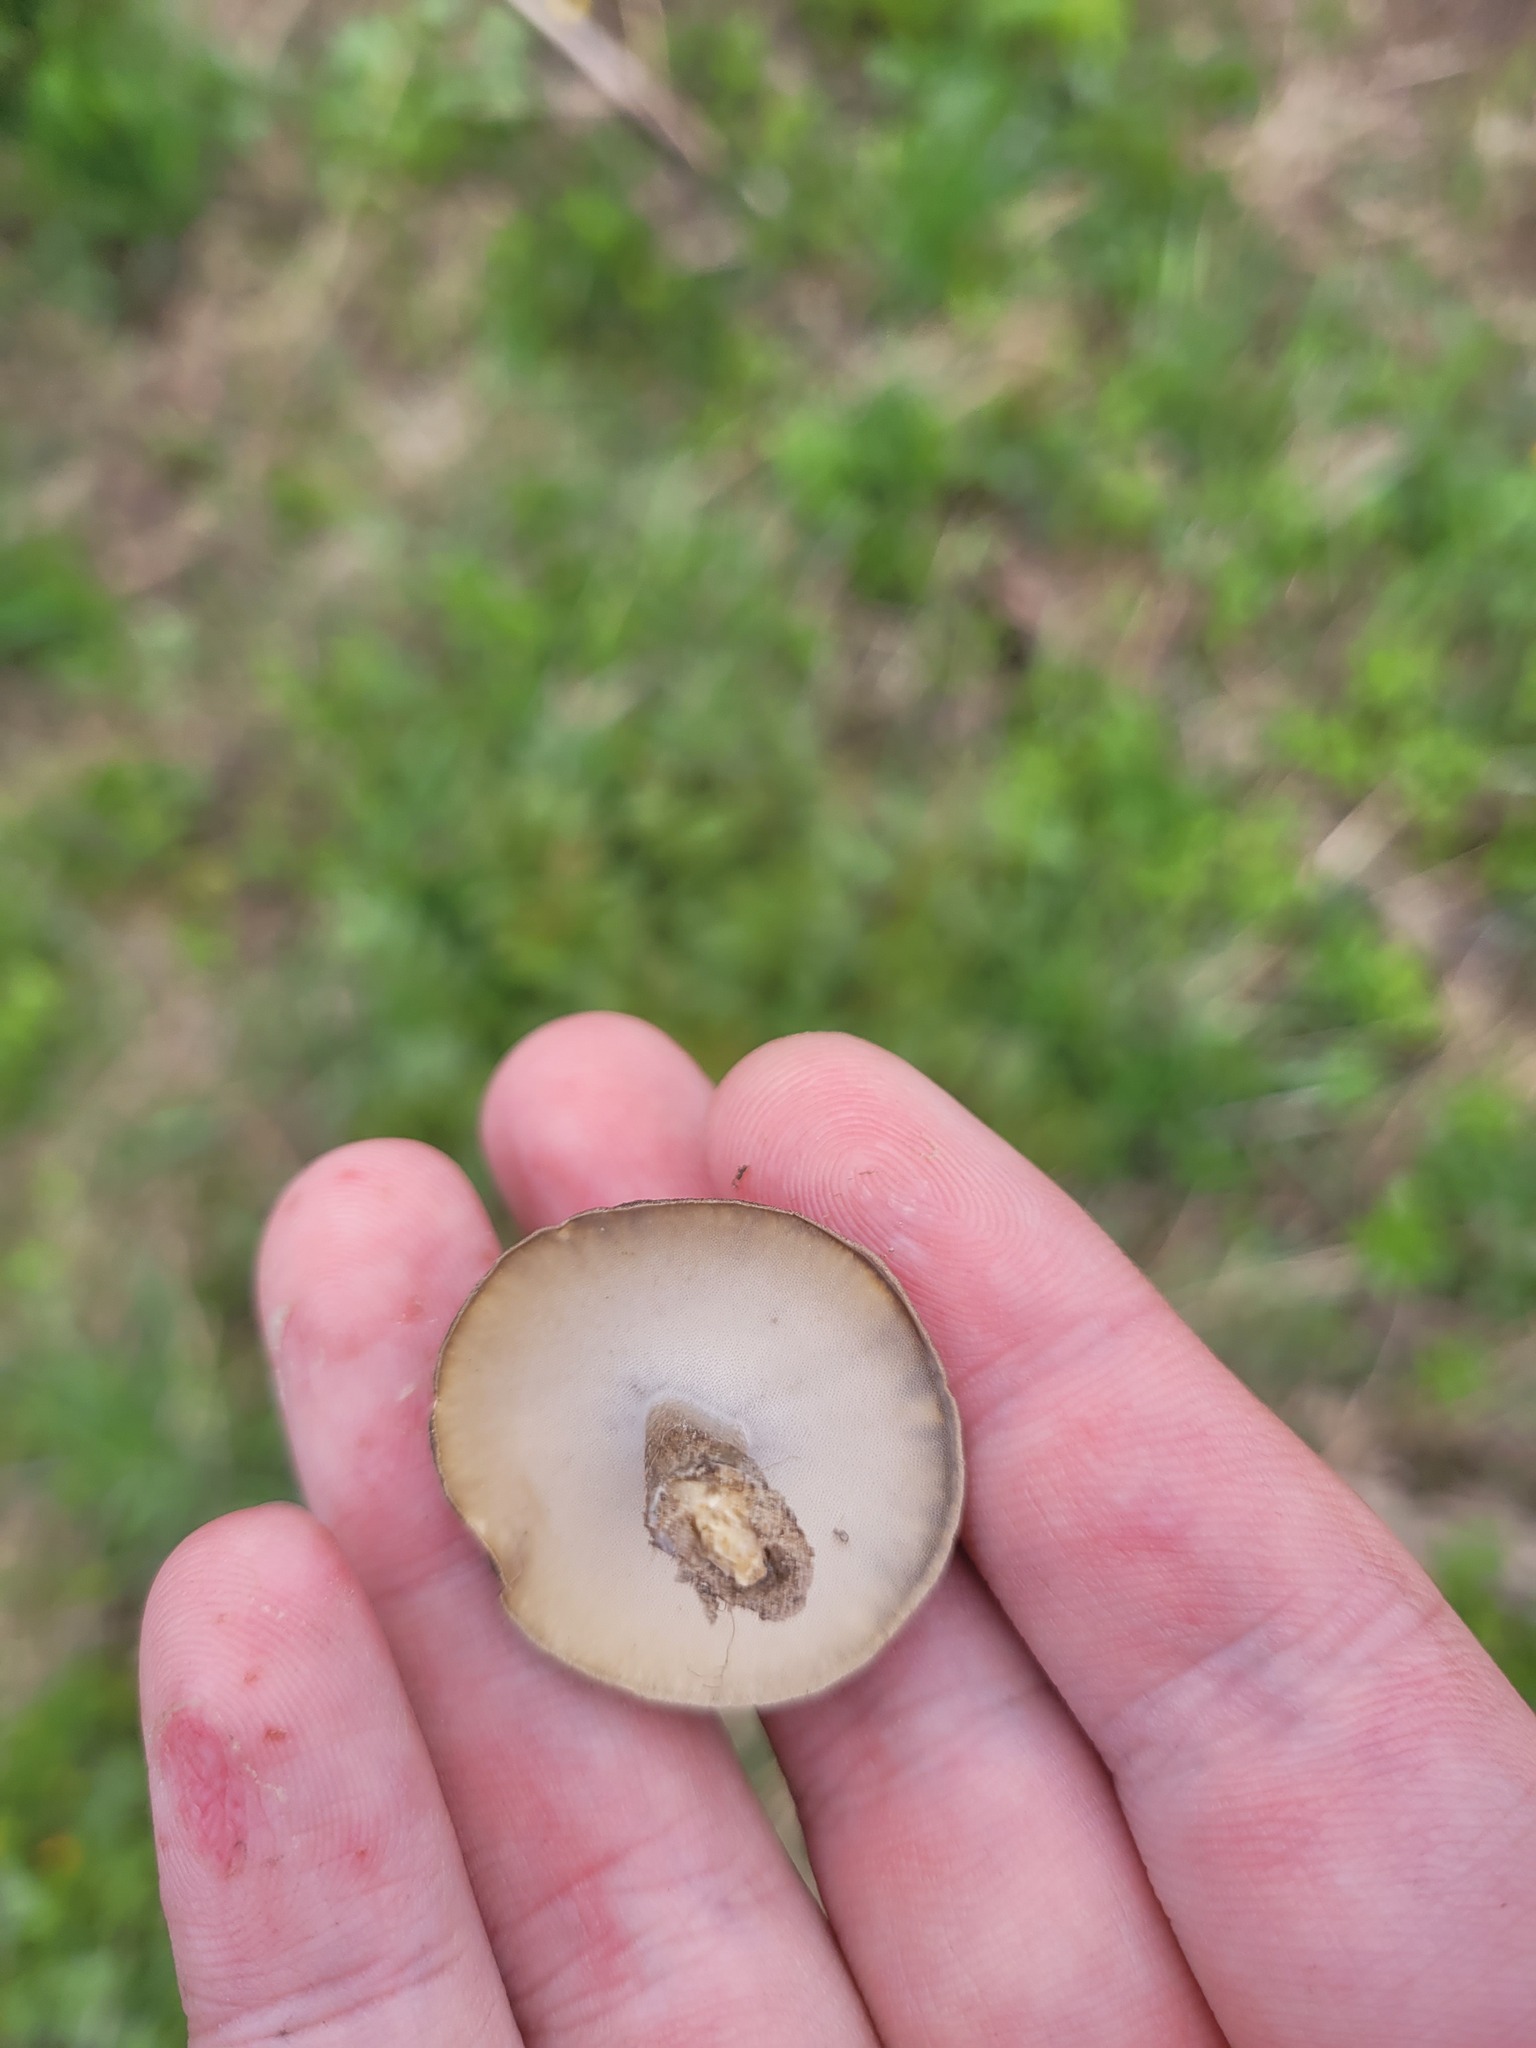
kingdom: Fungi
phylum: Basidiomycota
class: Agaricomycetes
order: Polyporales
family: Polyporaceae
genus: Lentinus
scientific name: Lentinus substrictus
